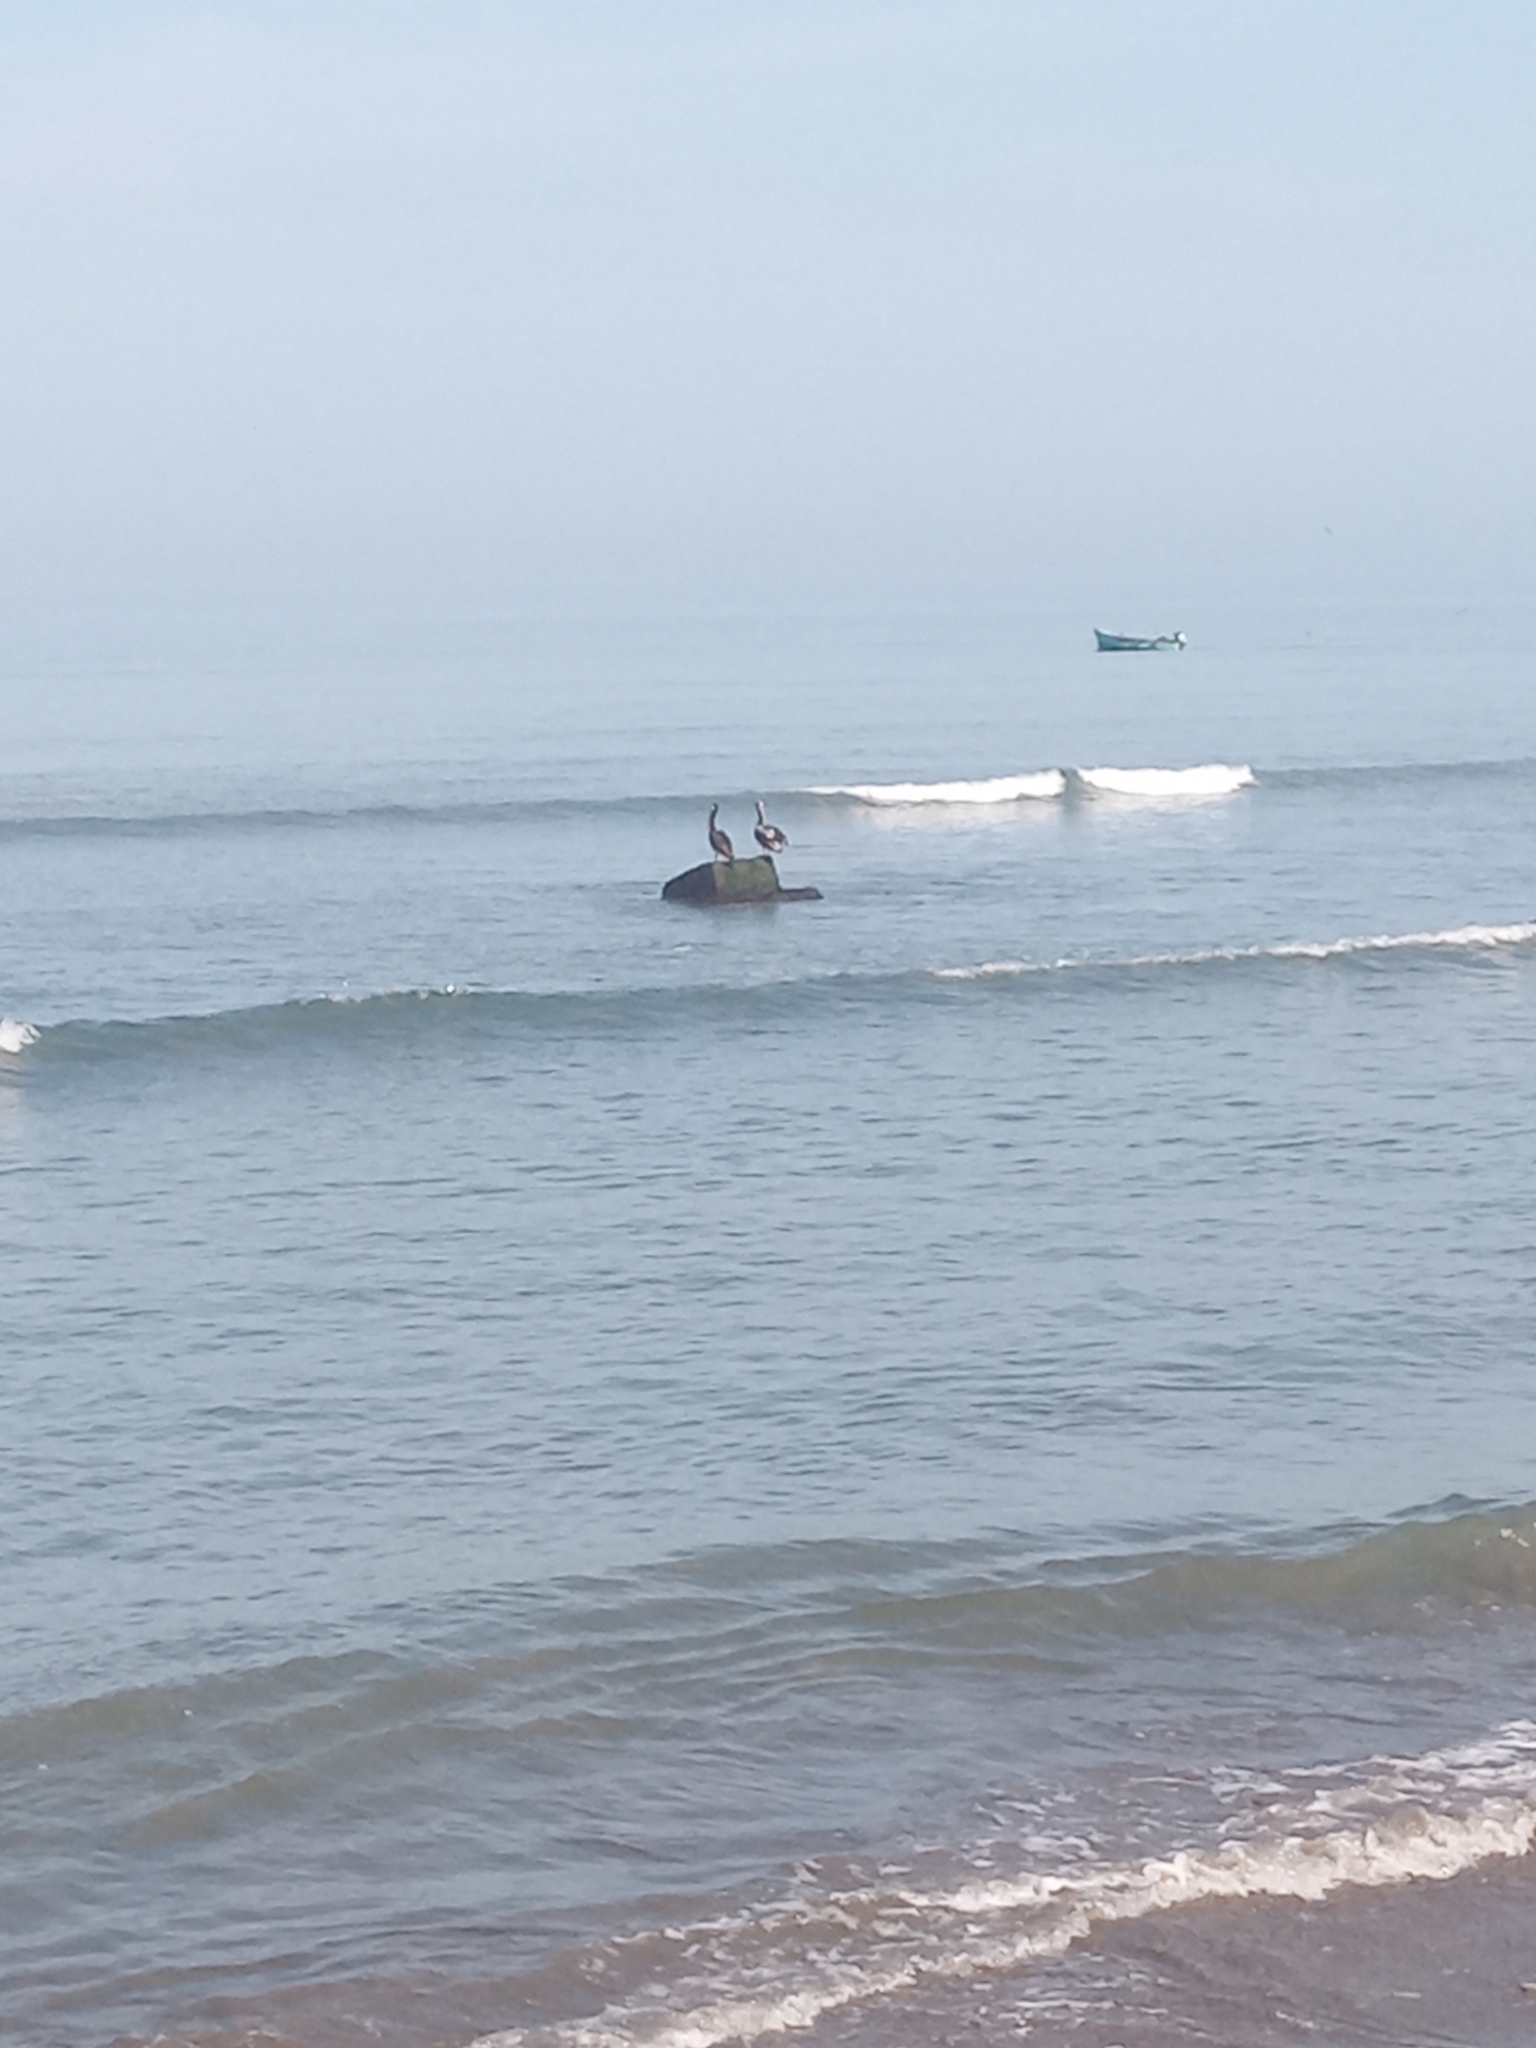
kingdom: Animalia
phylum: Chordata
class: Aves
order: Pelecaniformes
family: Pelecanidae
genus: Pelecanus
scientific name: Pelecanus thagus
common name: Peruvian pelican
